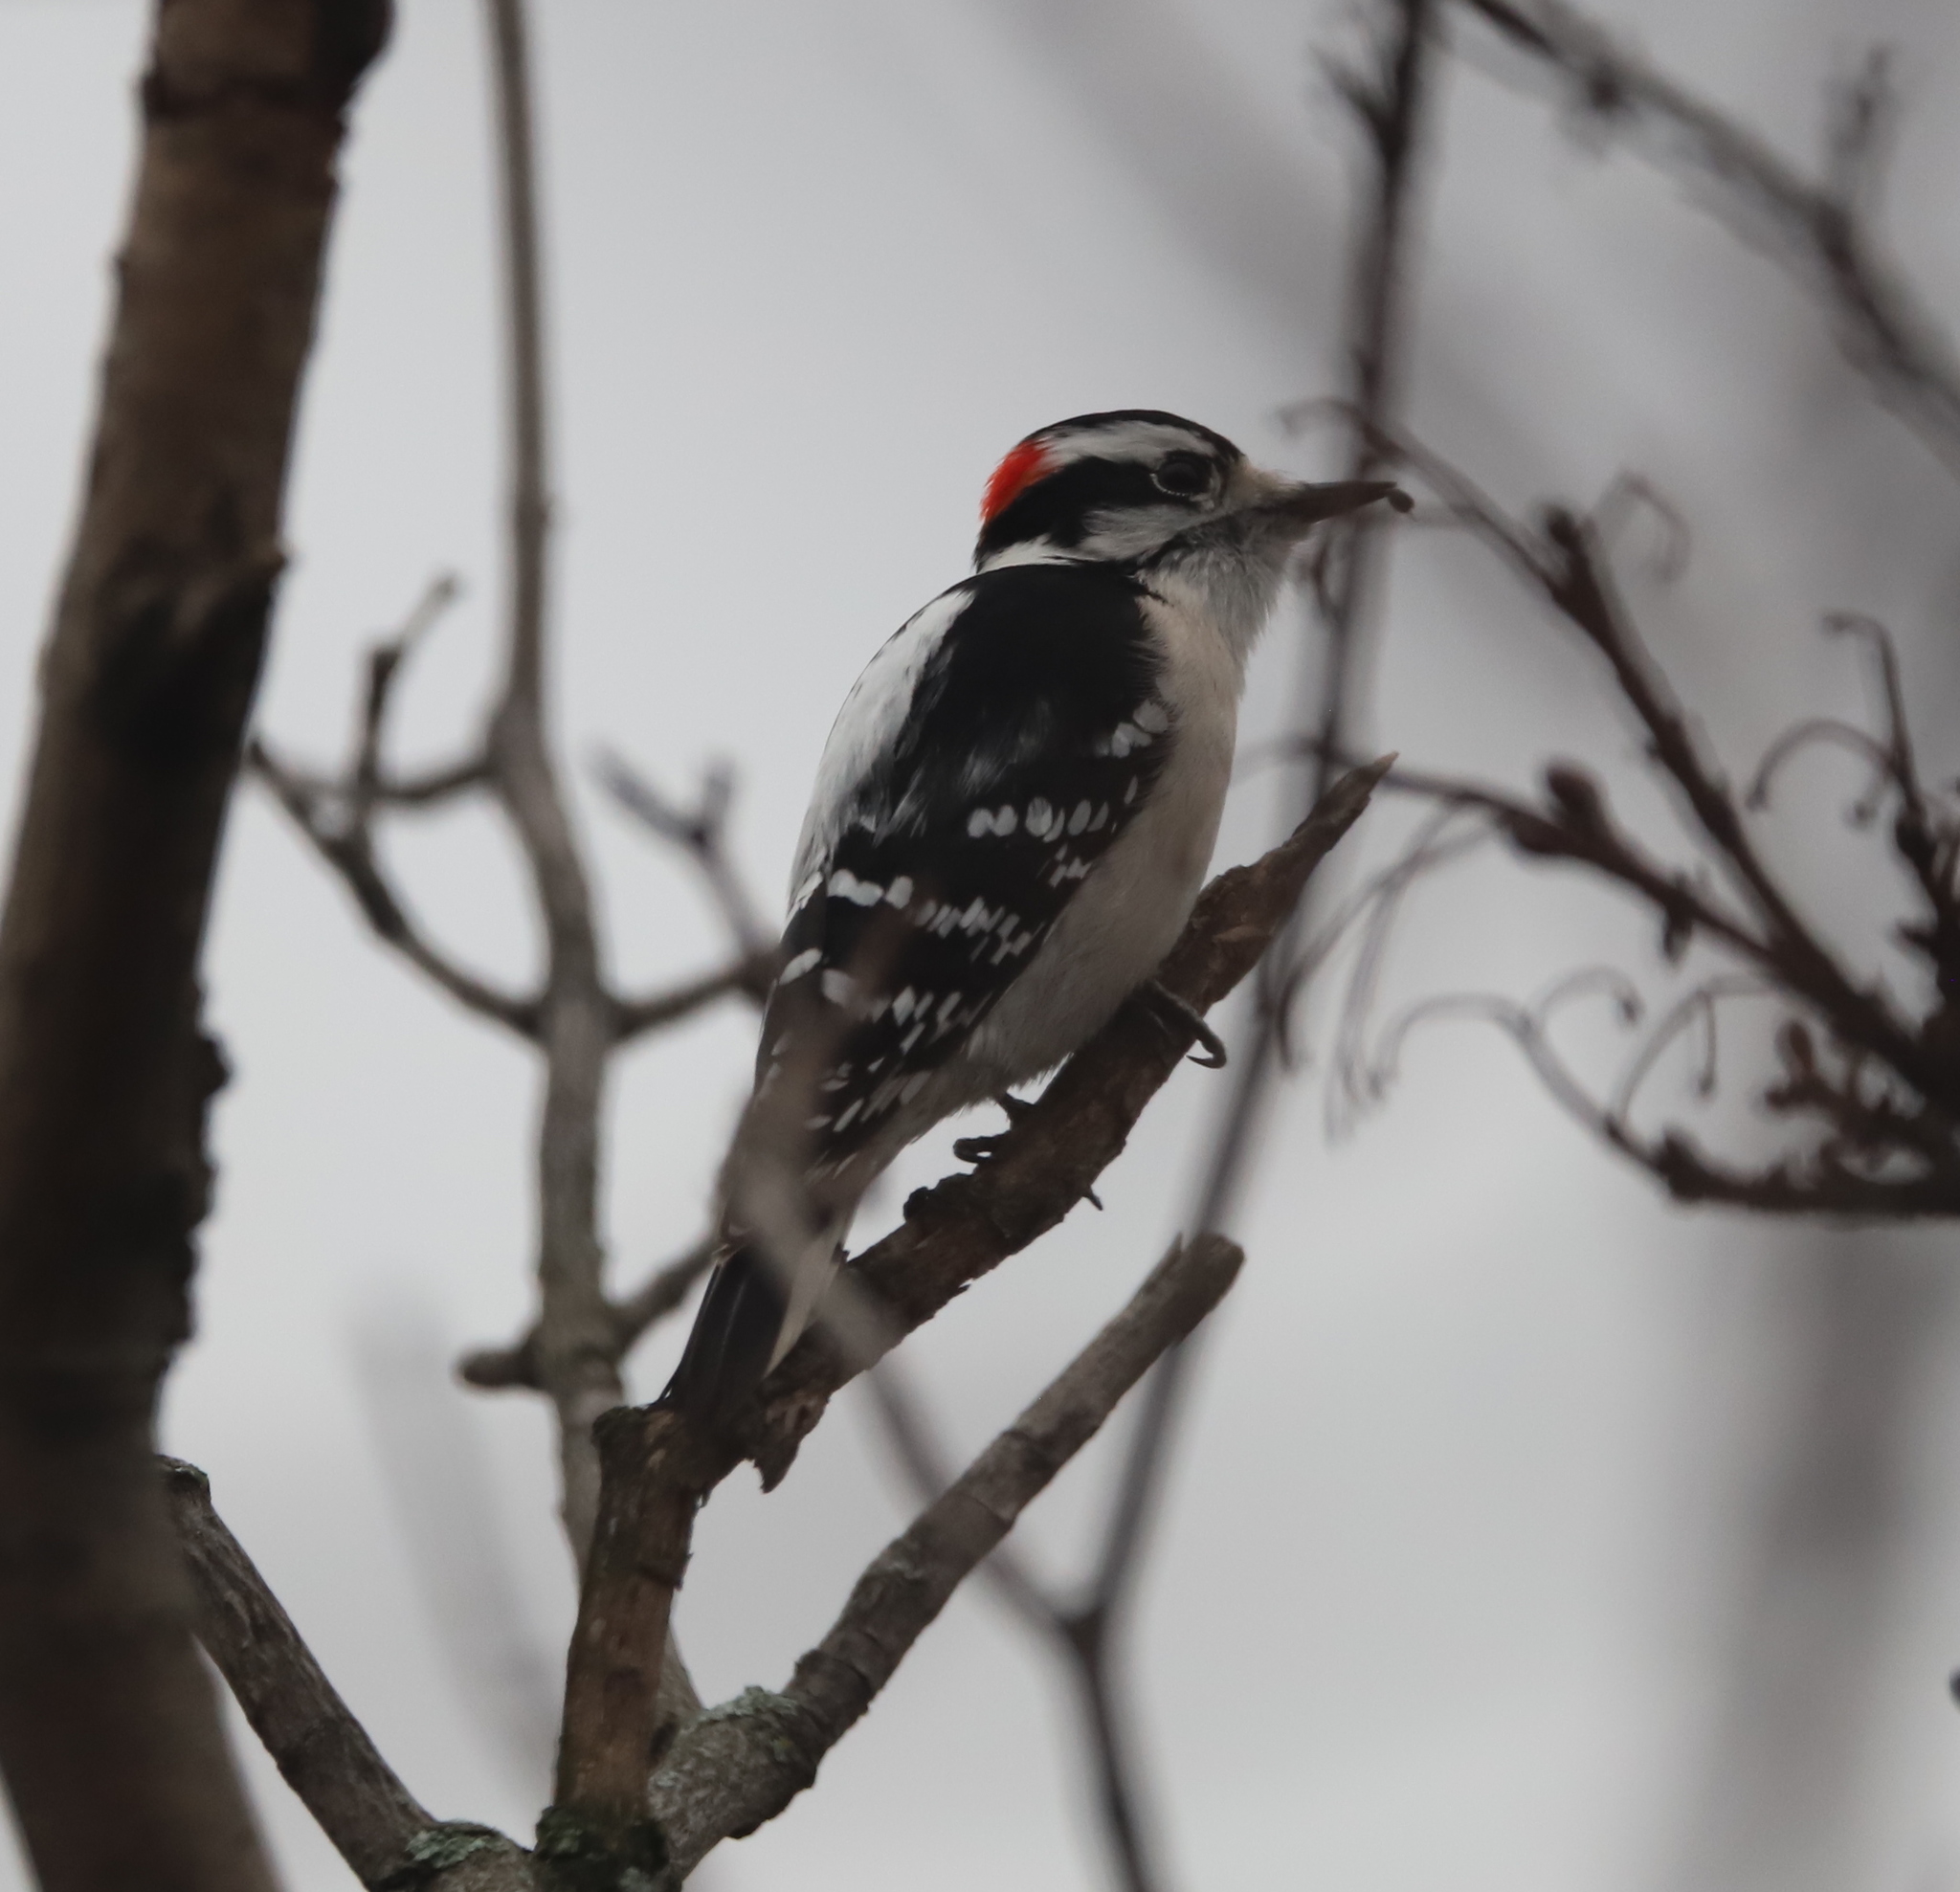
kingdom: Animalia
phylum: Chordata
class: Aves
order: Piciformes
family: Picidae
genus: Dryobates
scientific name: Dryobates pubescens
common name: Downy woodpecker
